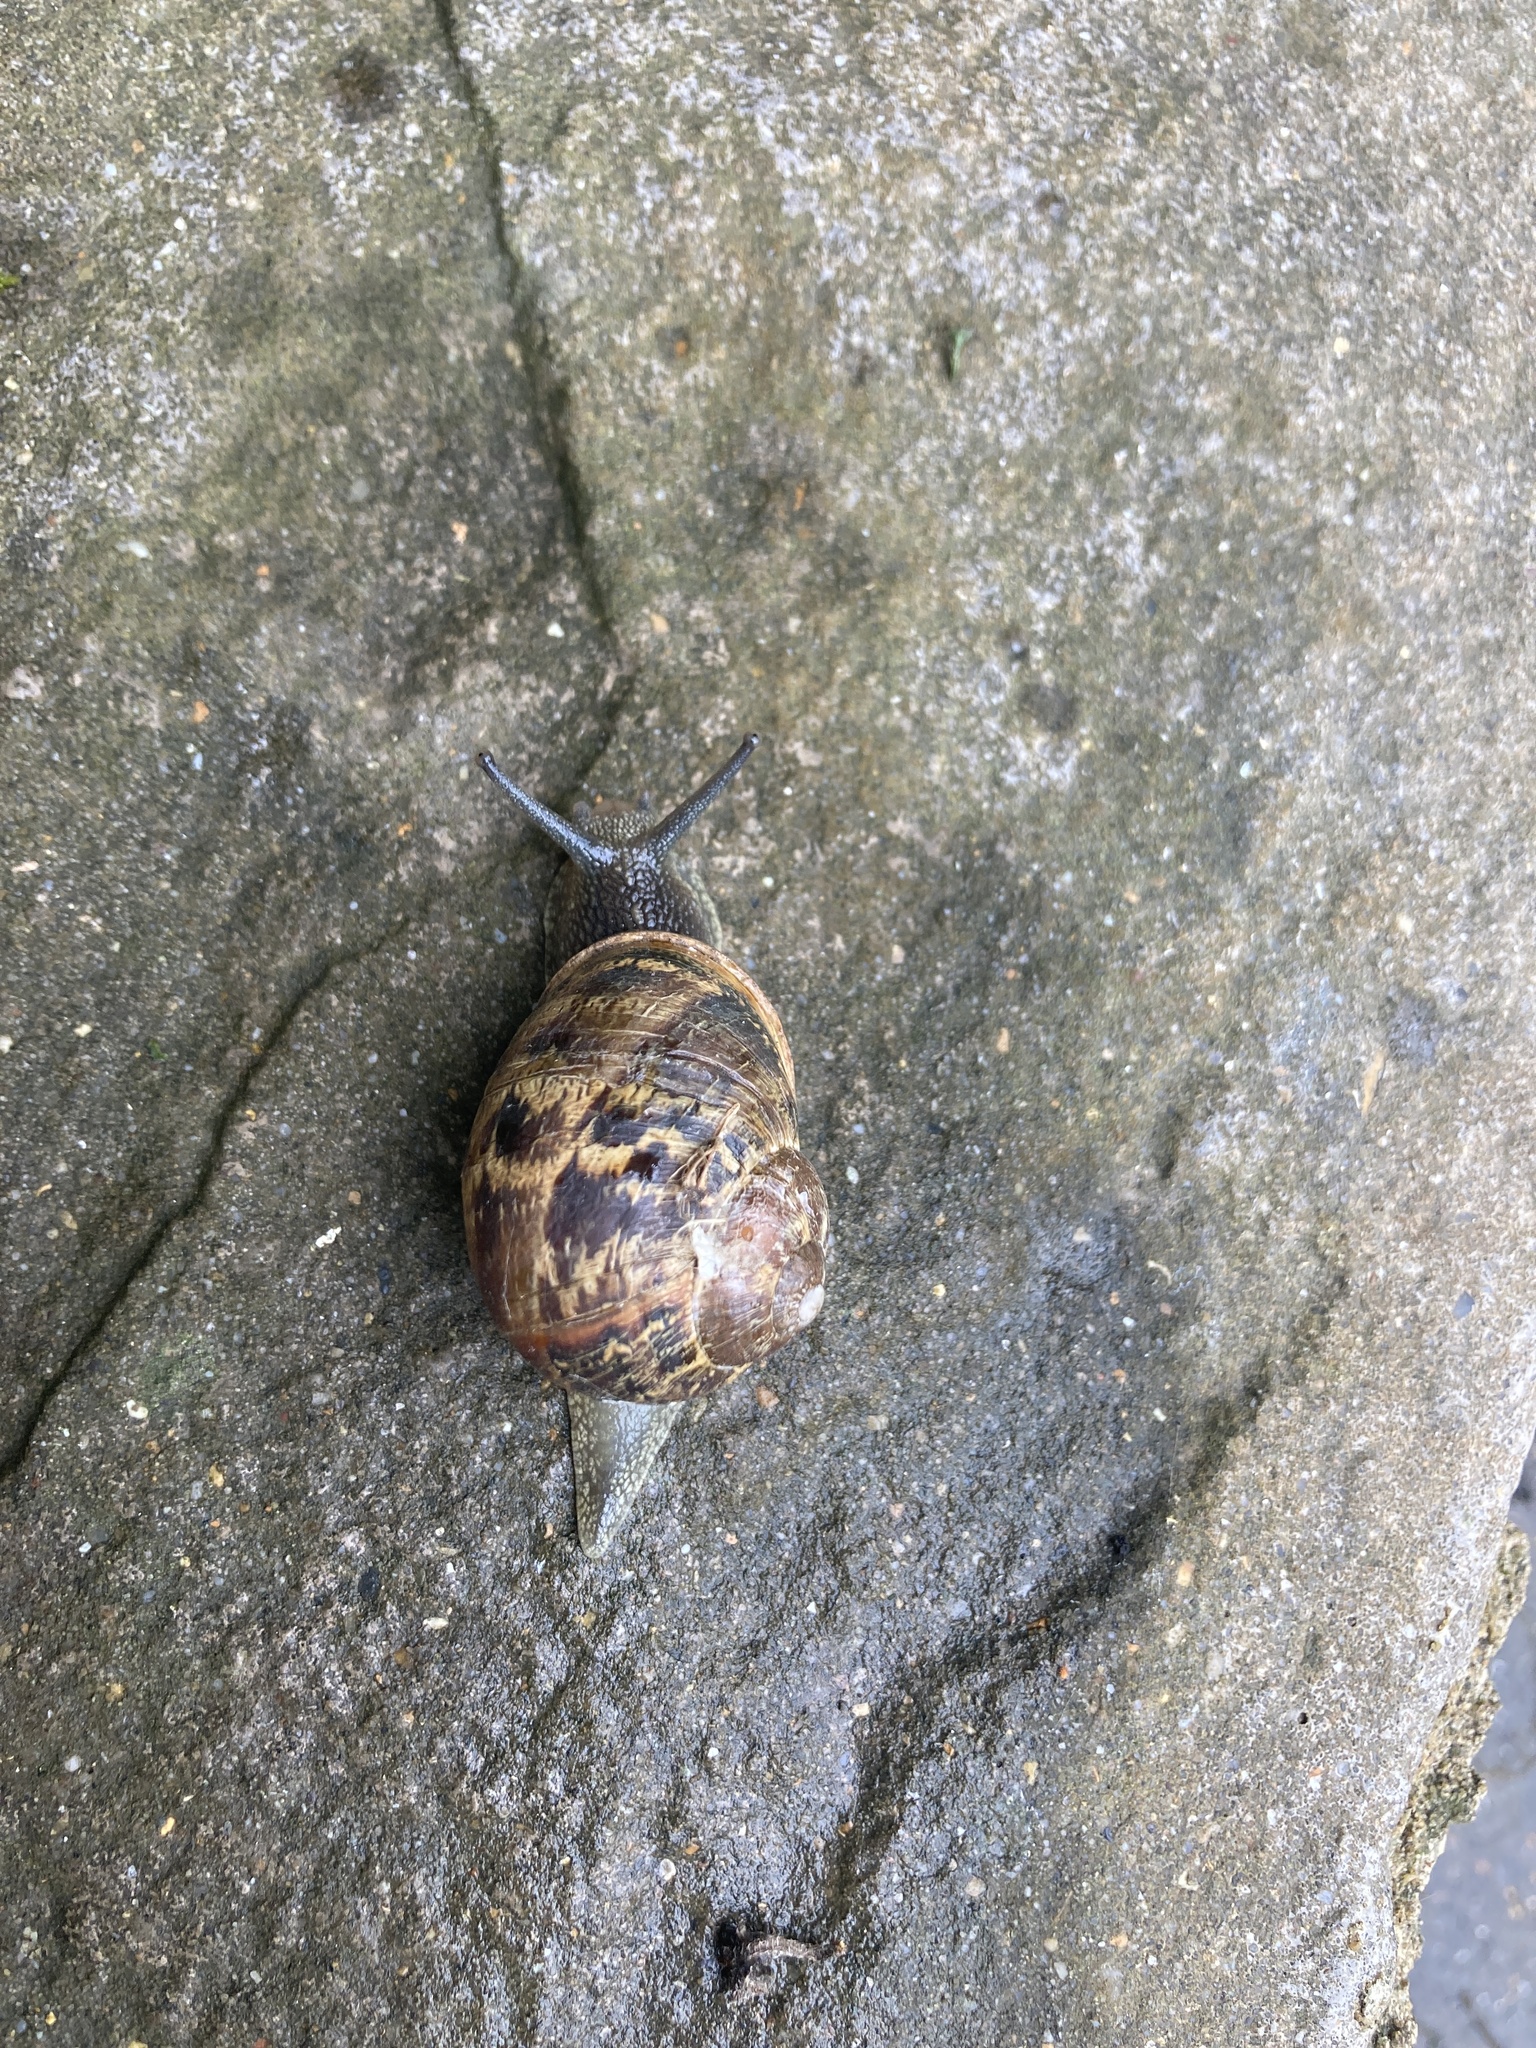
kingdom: Animalia
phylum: Mollusca
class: Gastropoda
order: Stylommatophora
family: Helicidae
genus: Cornu
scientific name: Cornu aspersum
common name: Brown garden snail
